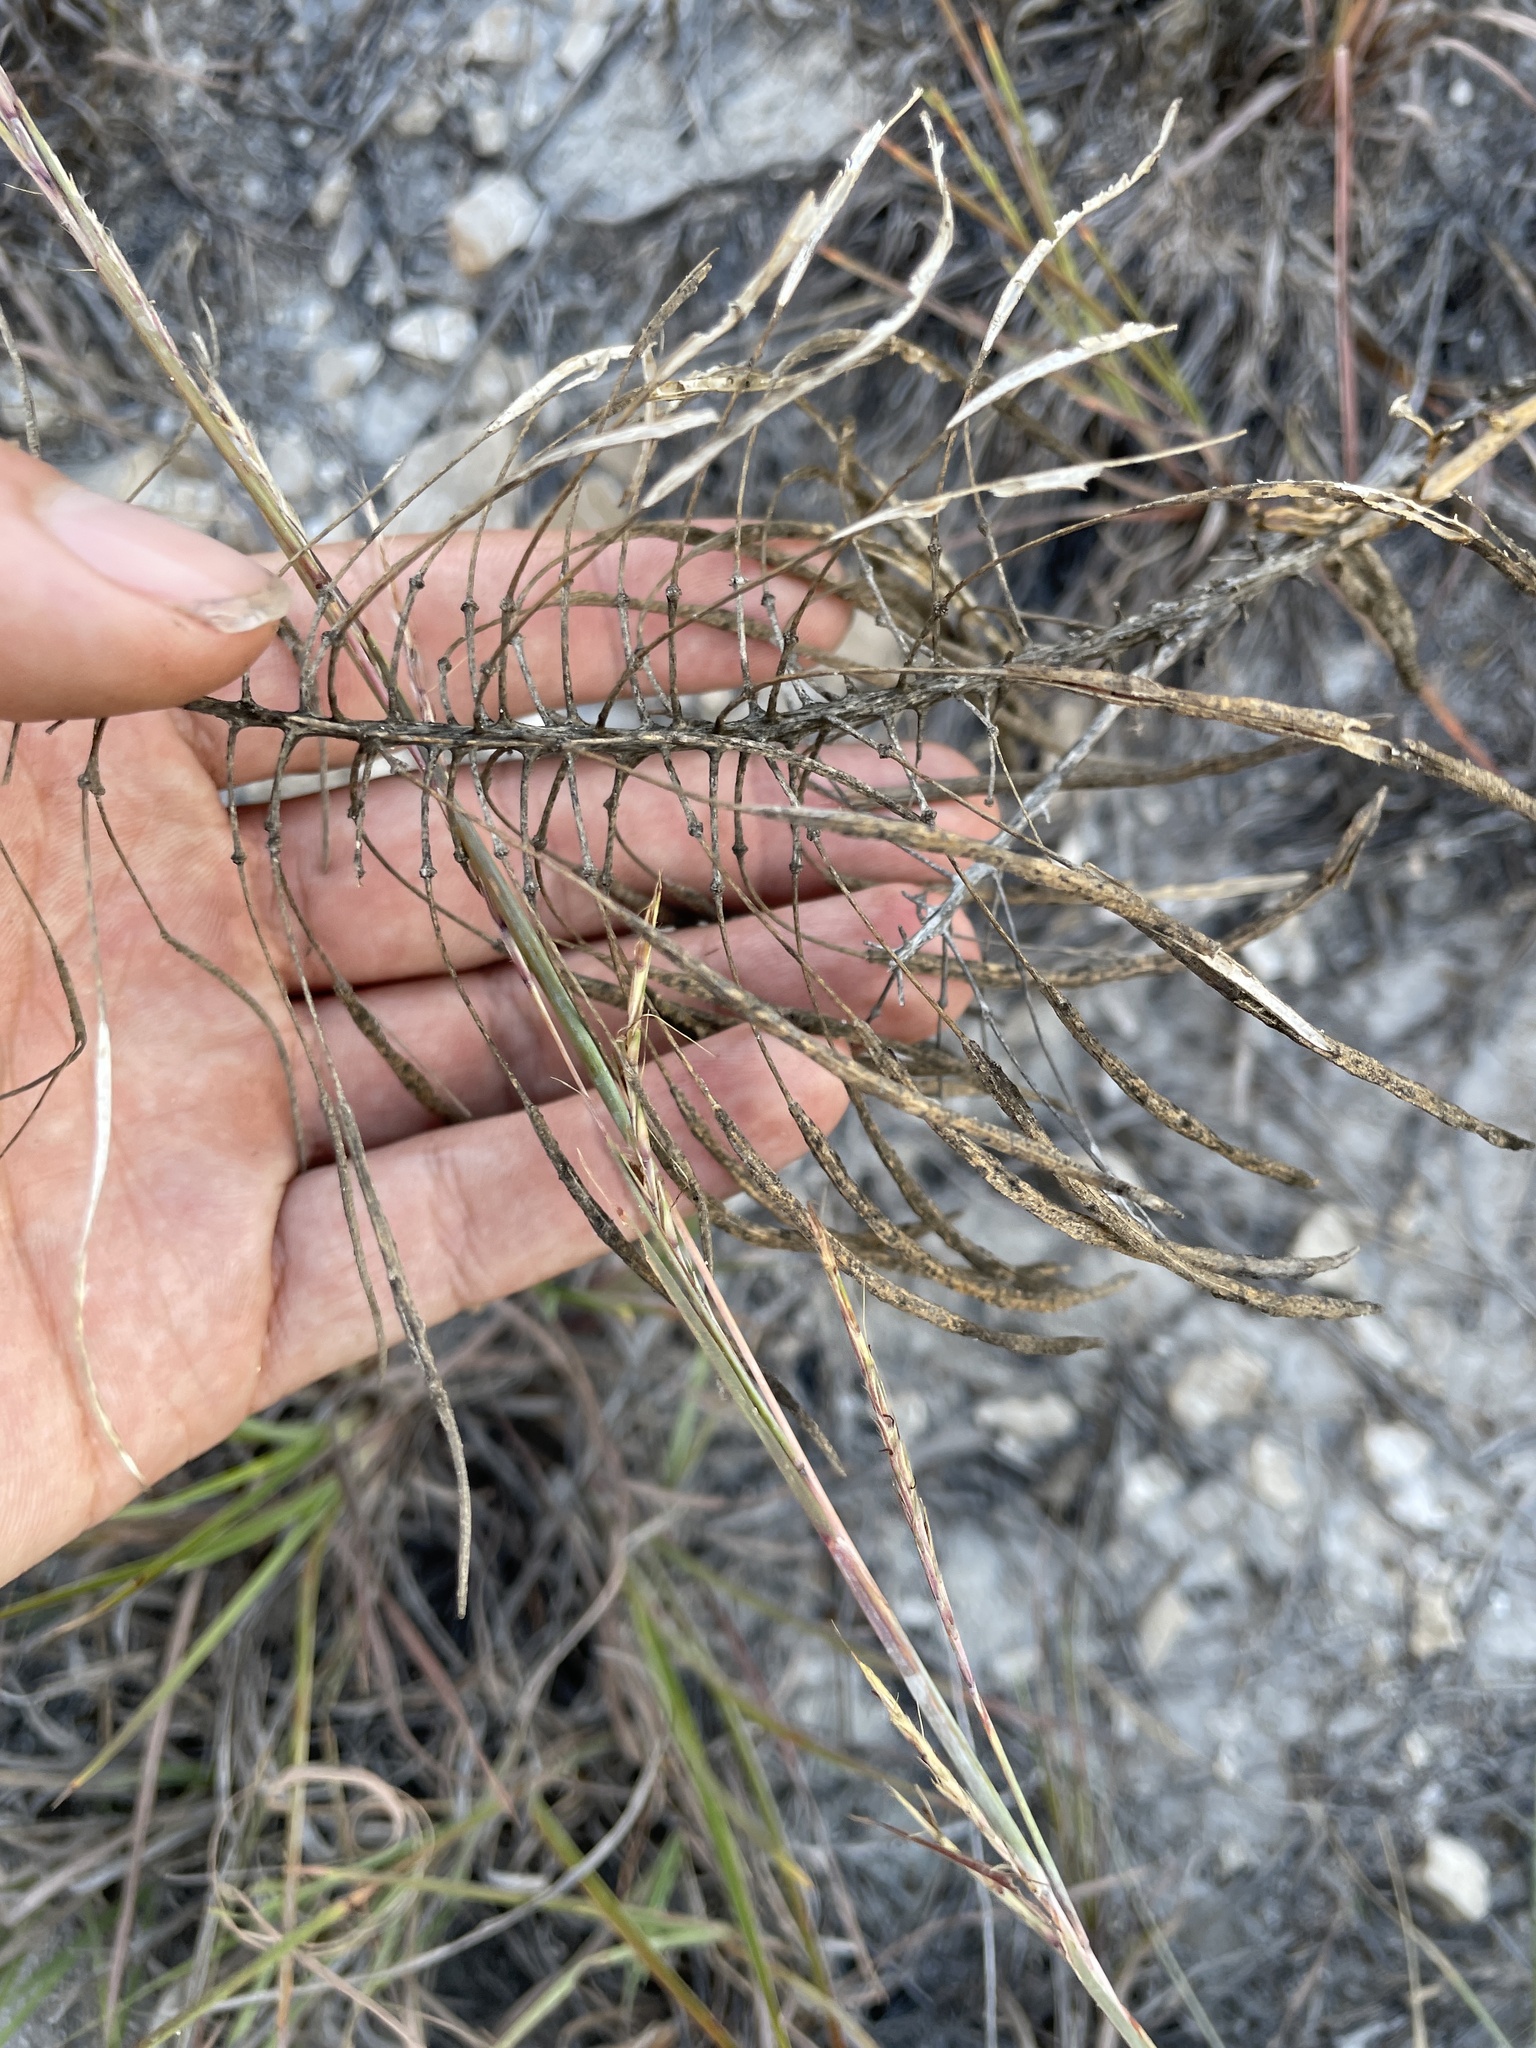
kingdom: Plantae
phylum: Tracheophyta
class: Magnoliopsida
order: Brassicales
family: Brassicaceae
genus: Stanleya
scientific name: Stanleya pinnata
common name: Prince's-plume
